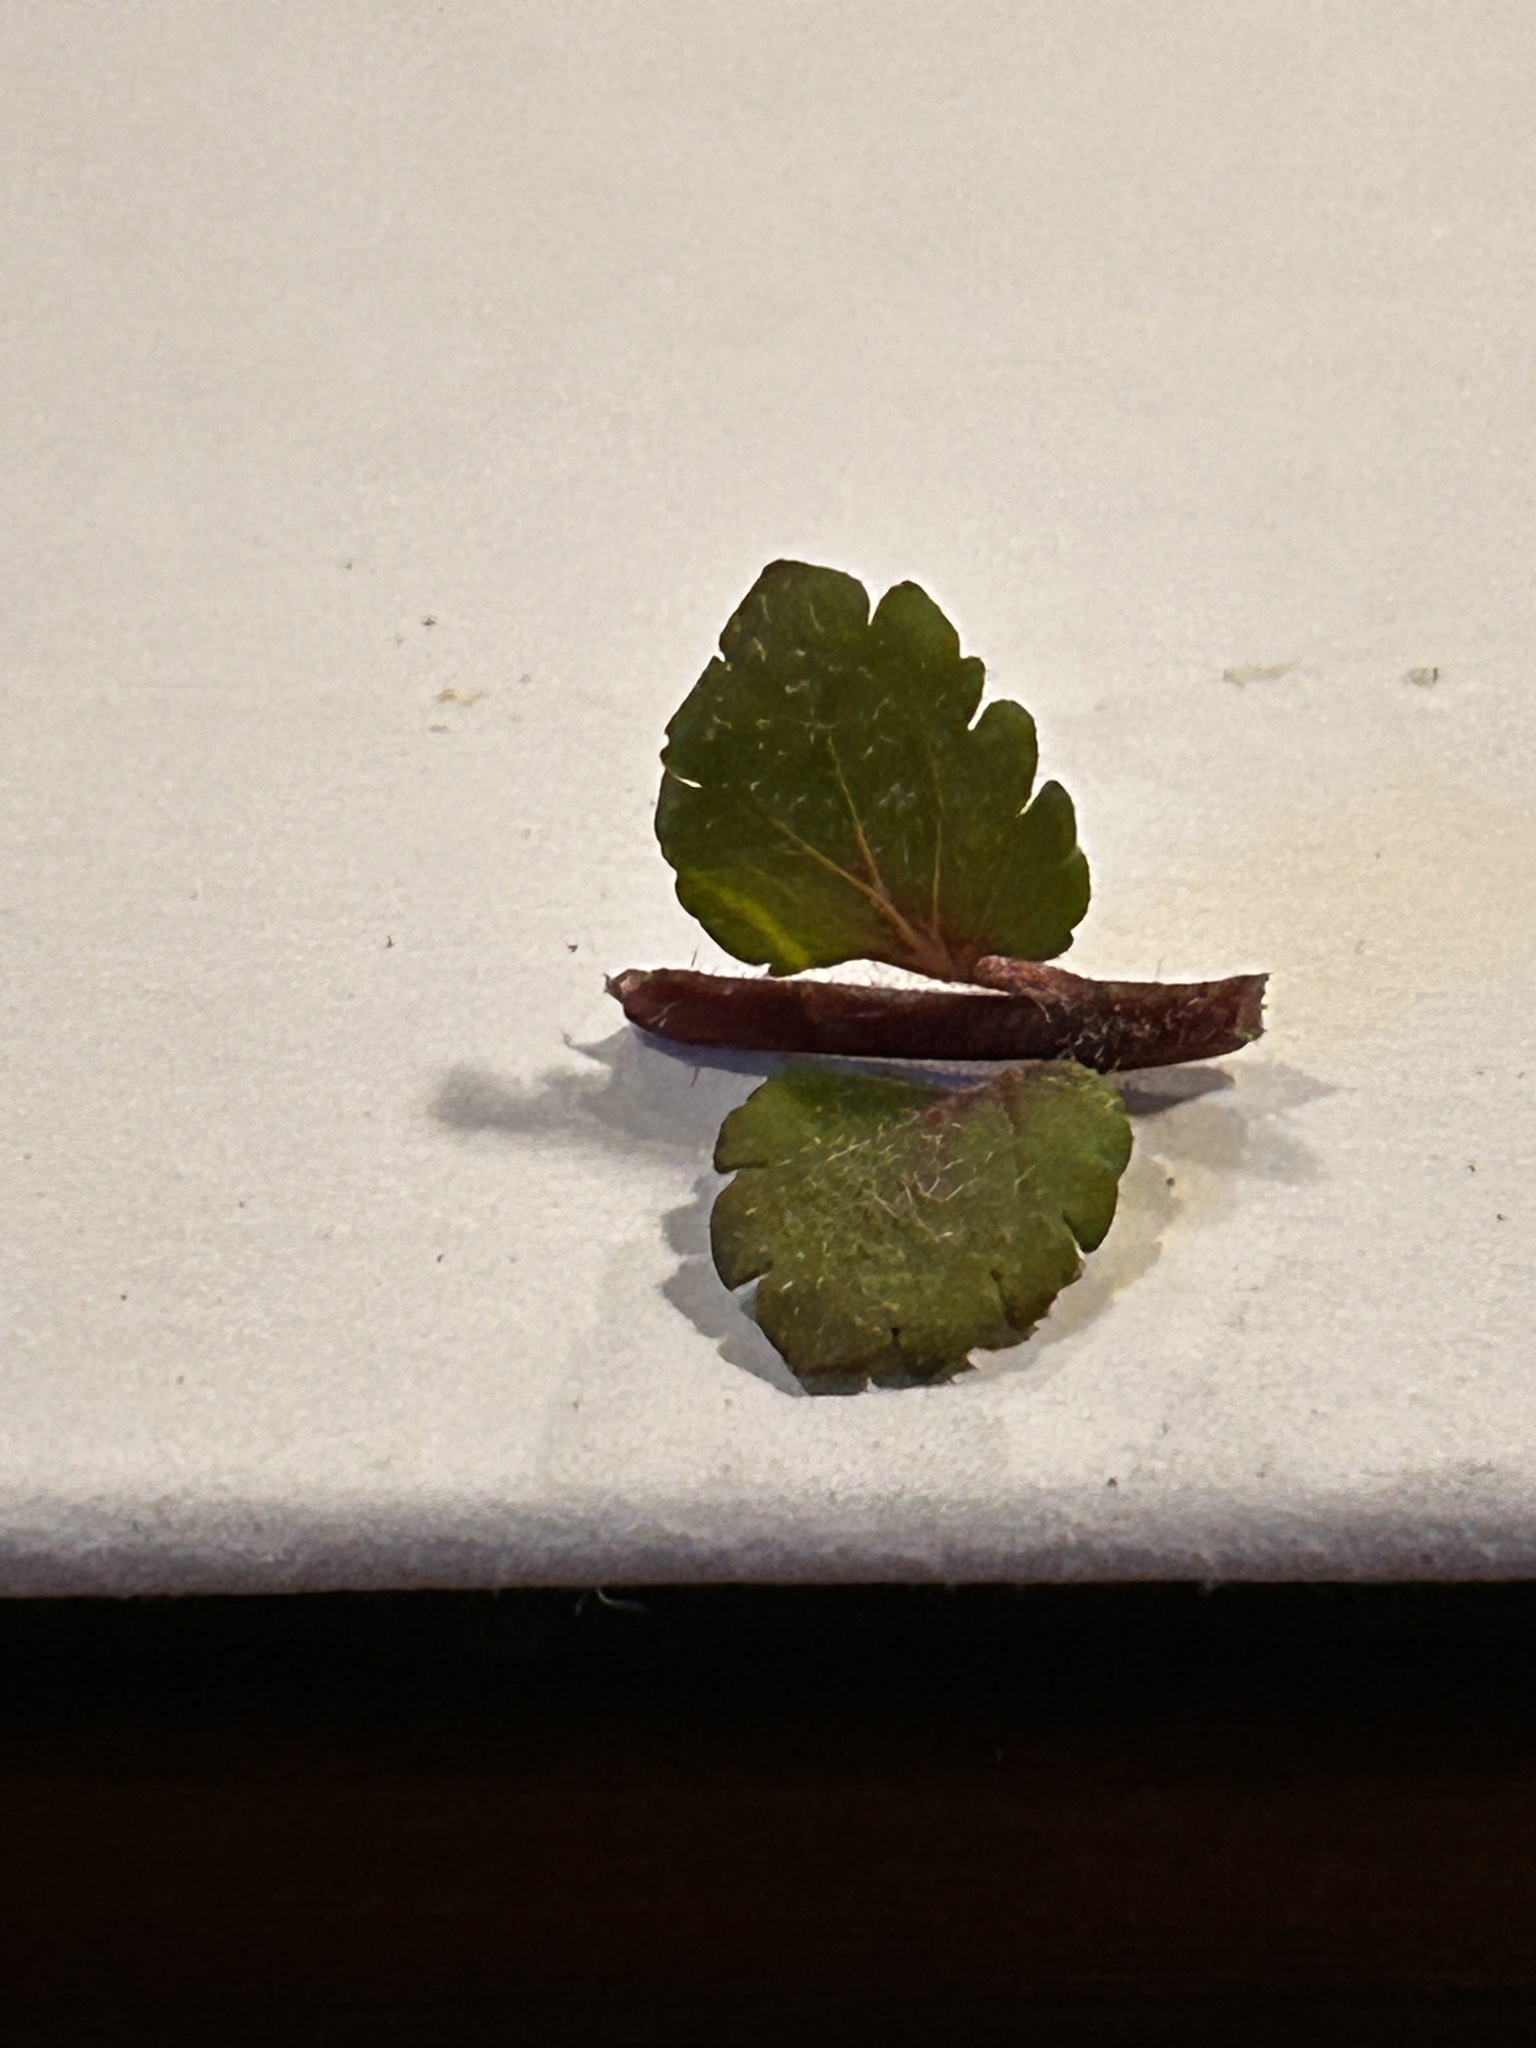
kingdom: Plantae
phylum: Tracheophyta
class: Magnoliopsida
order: Lamiales
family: Plantaginaceae
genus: Veronica
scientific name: Veronica persica
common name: Common field-speedwell
